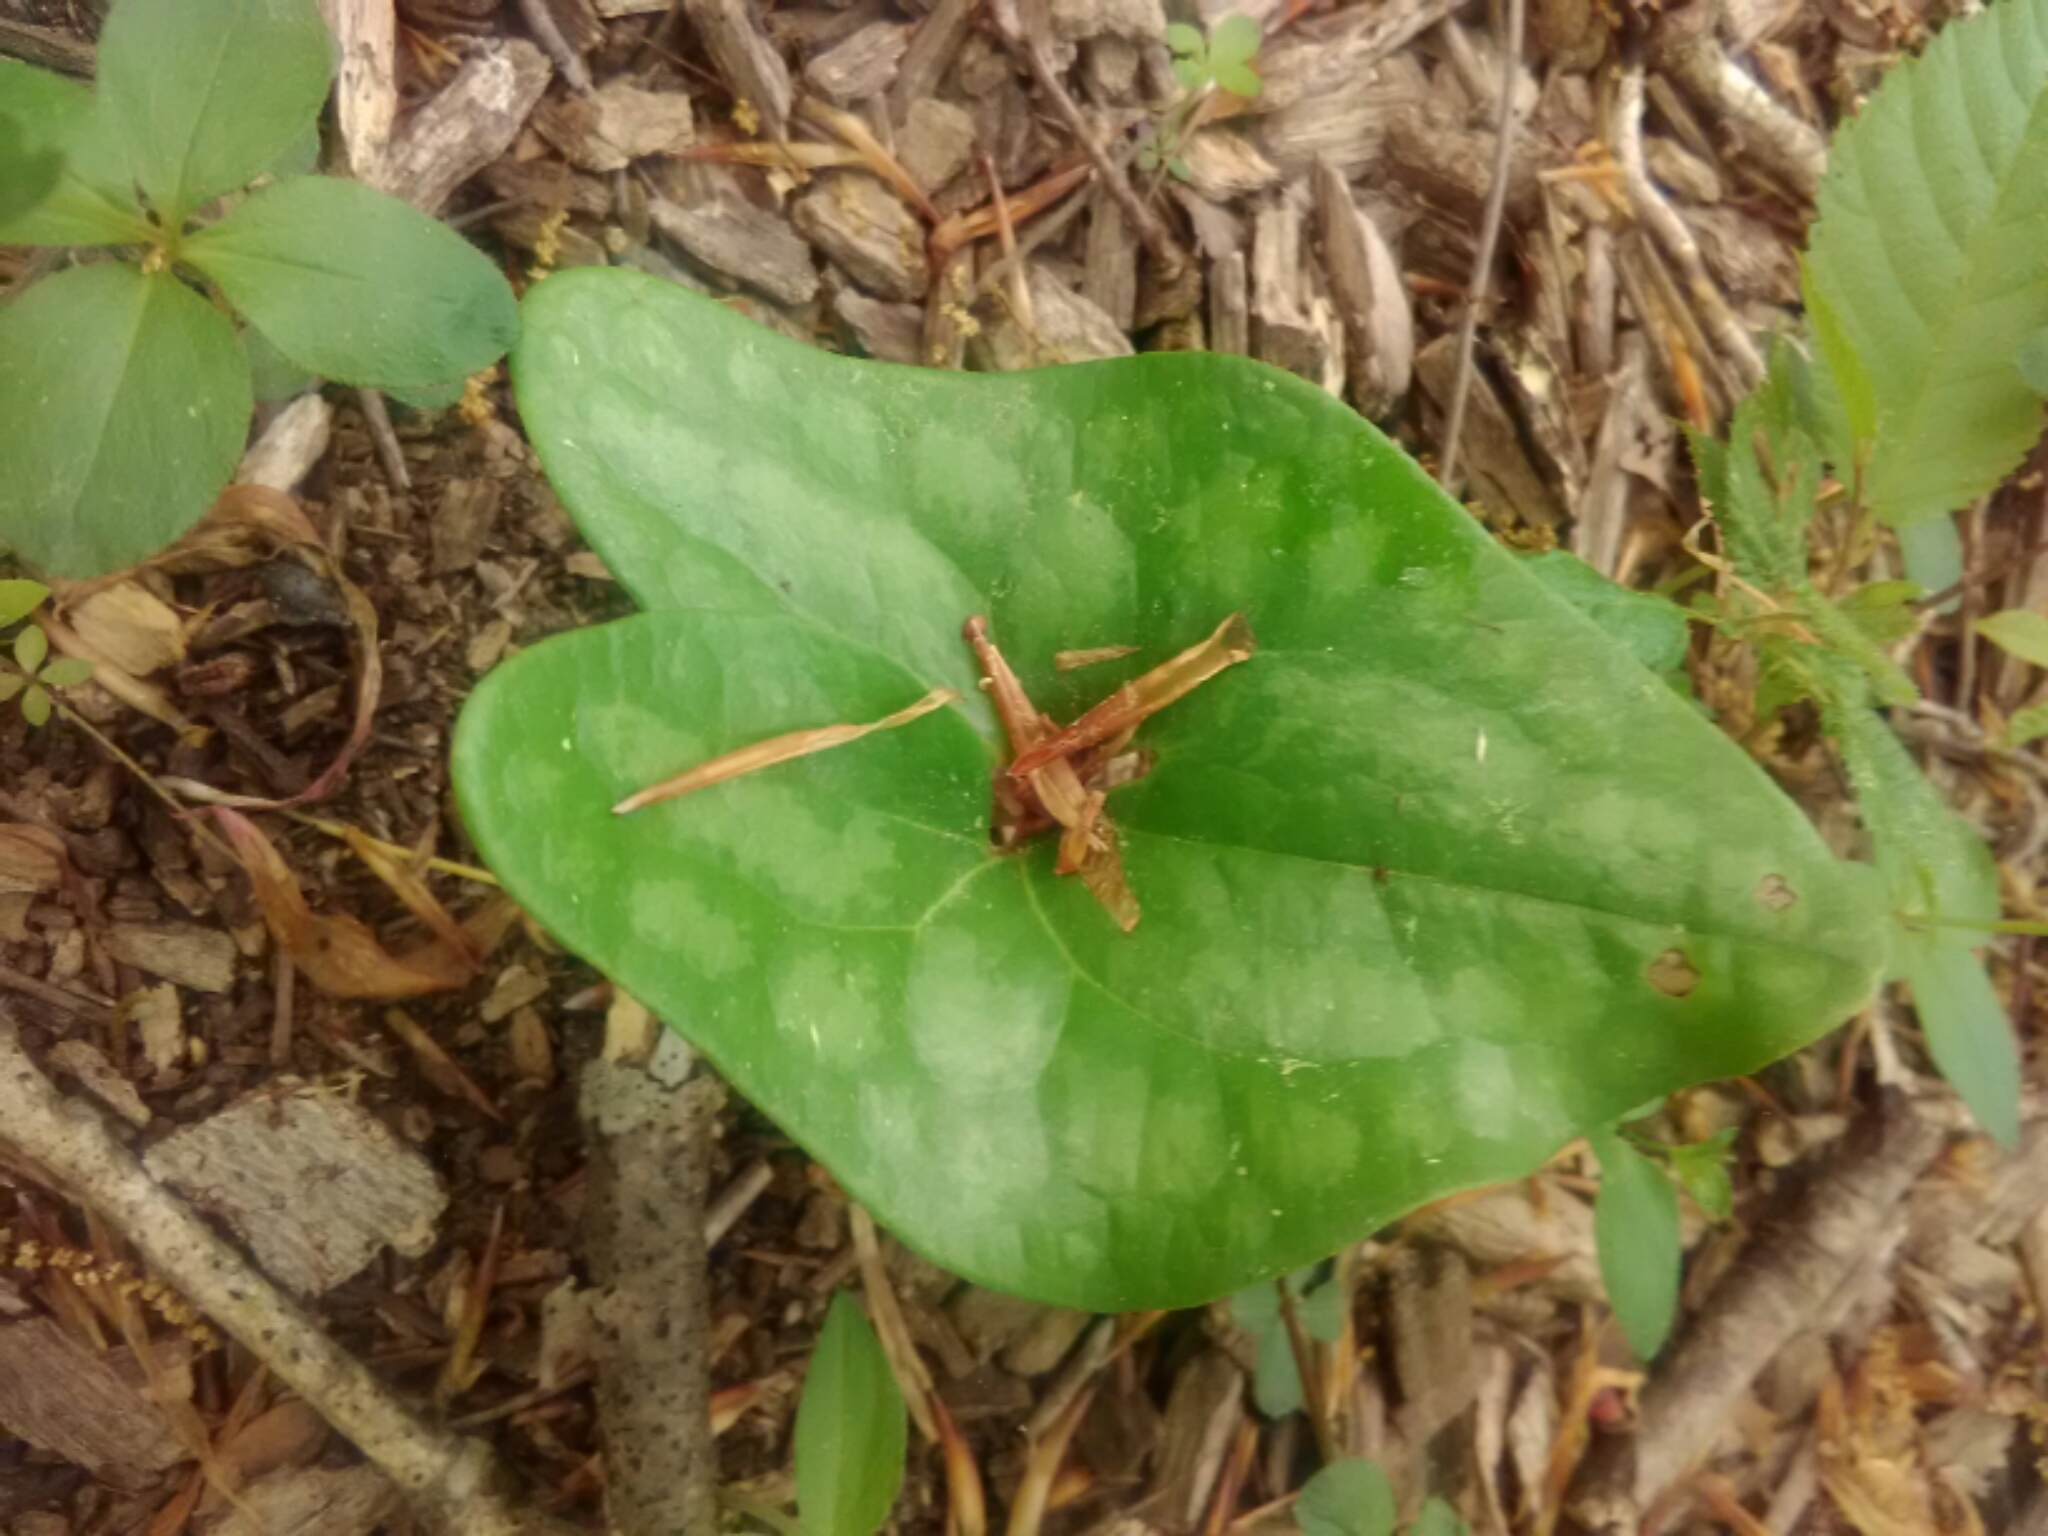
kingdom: Plantae
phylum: Tracheophyta
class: Magnoliopsida
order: Piperales
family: Aristolochiaceae
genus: Hexastylis
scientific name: Hexastylis arifolia
